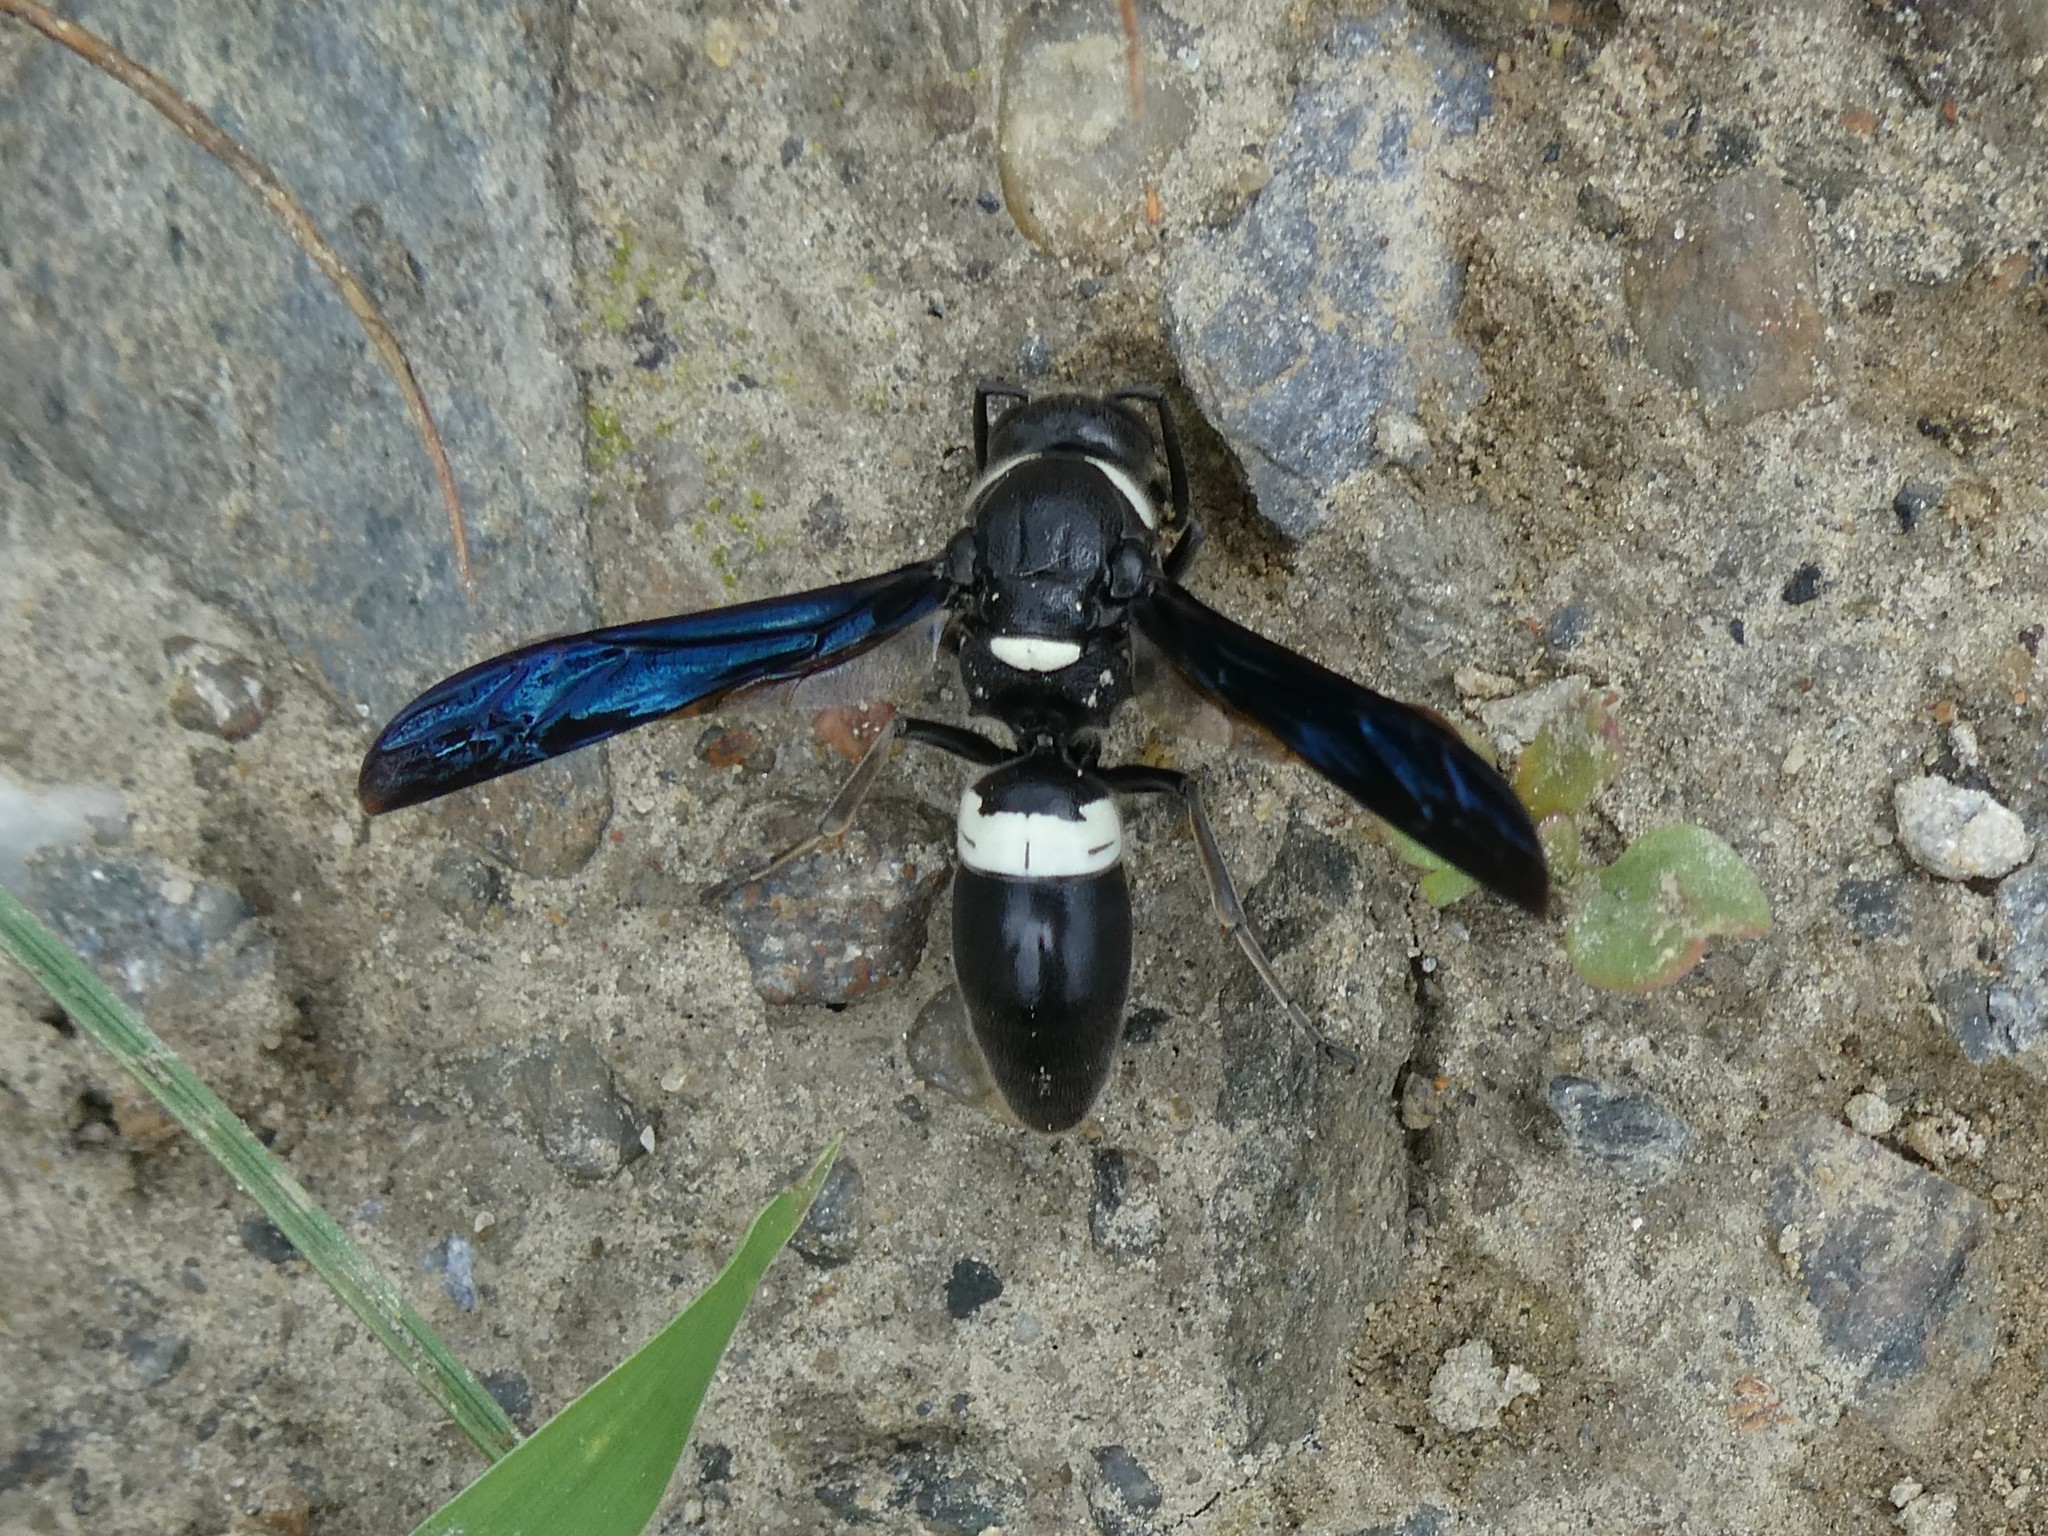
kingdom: Animalia
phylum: Arthropoda
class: Insecta
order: Hymenoptera
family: Eumenidae
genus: Monobia
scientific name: Monobia quadridens
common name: Four-toothed mason wasp
